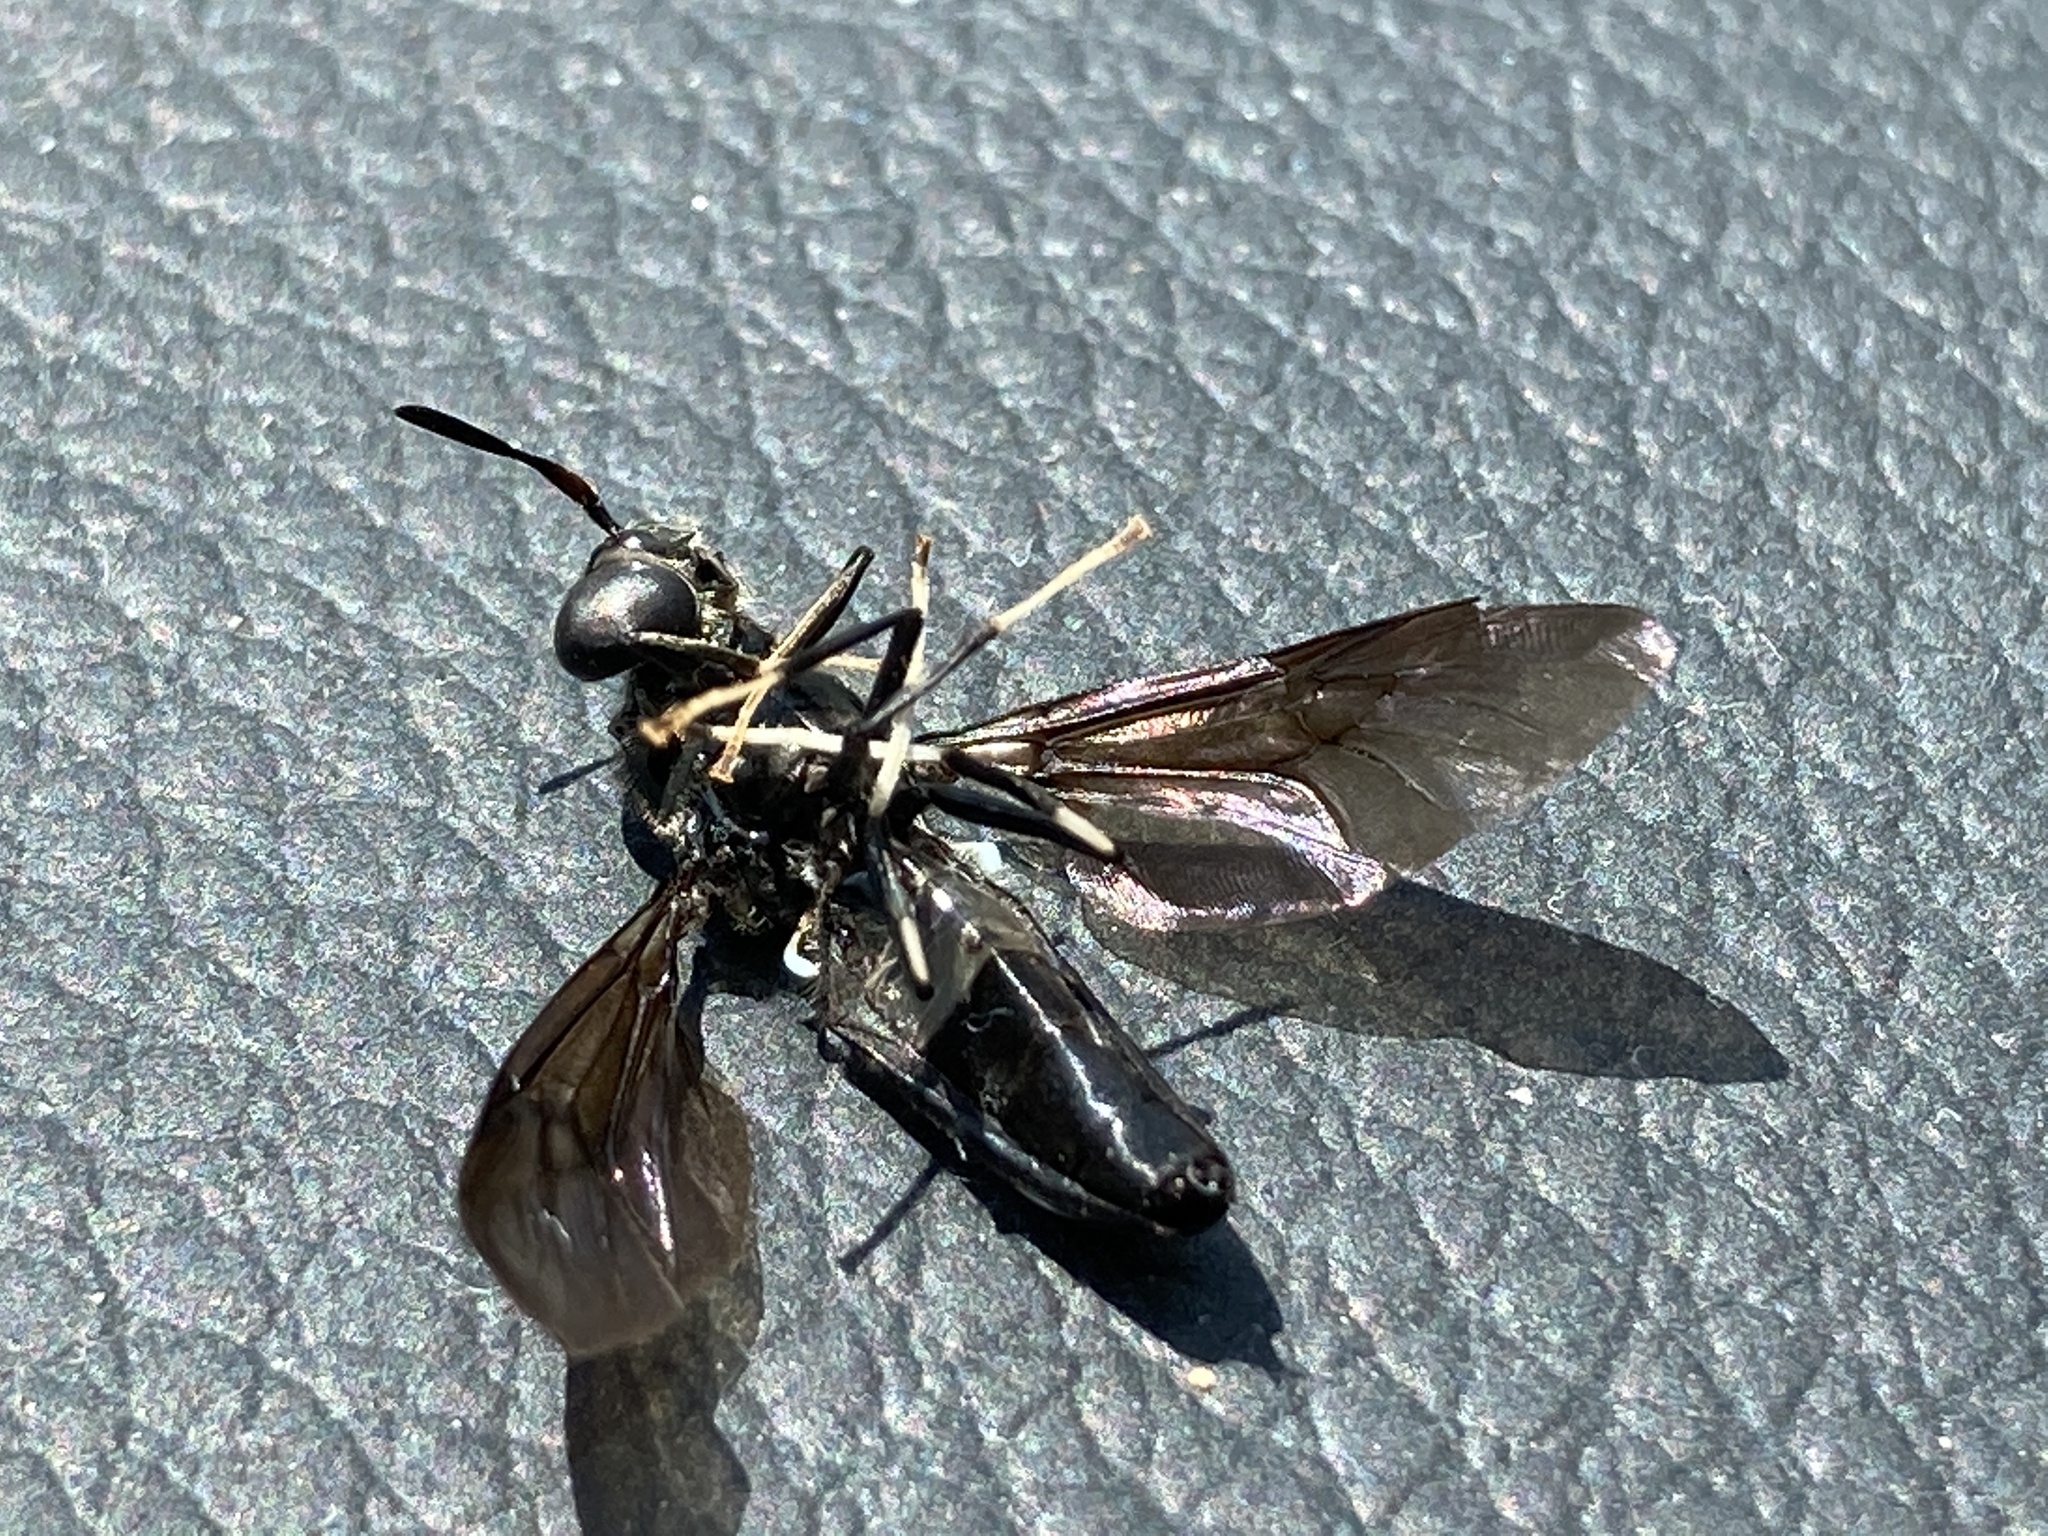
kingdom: Animalia
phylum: Arthropoda
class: Insecta
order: Diptera
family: Stratiomyidae
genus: Hermetia
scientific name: Hermetia illucens
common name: Black soldier fly
